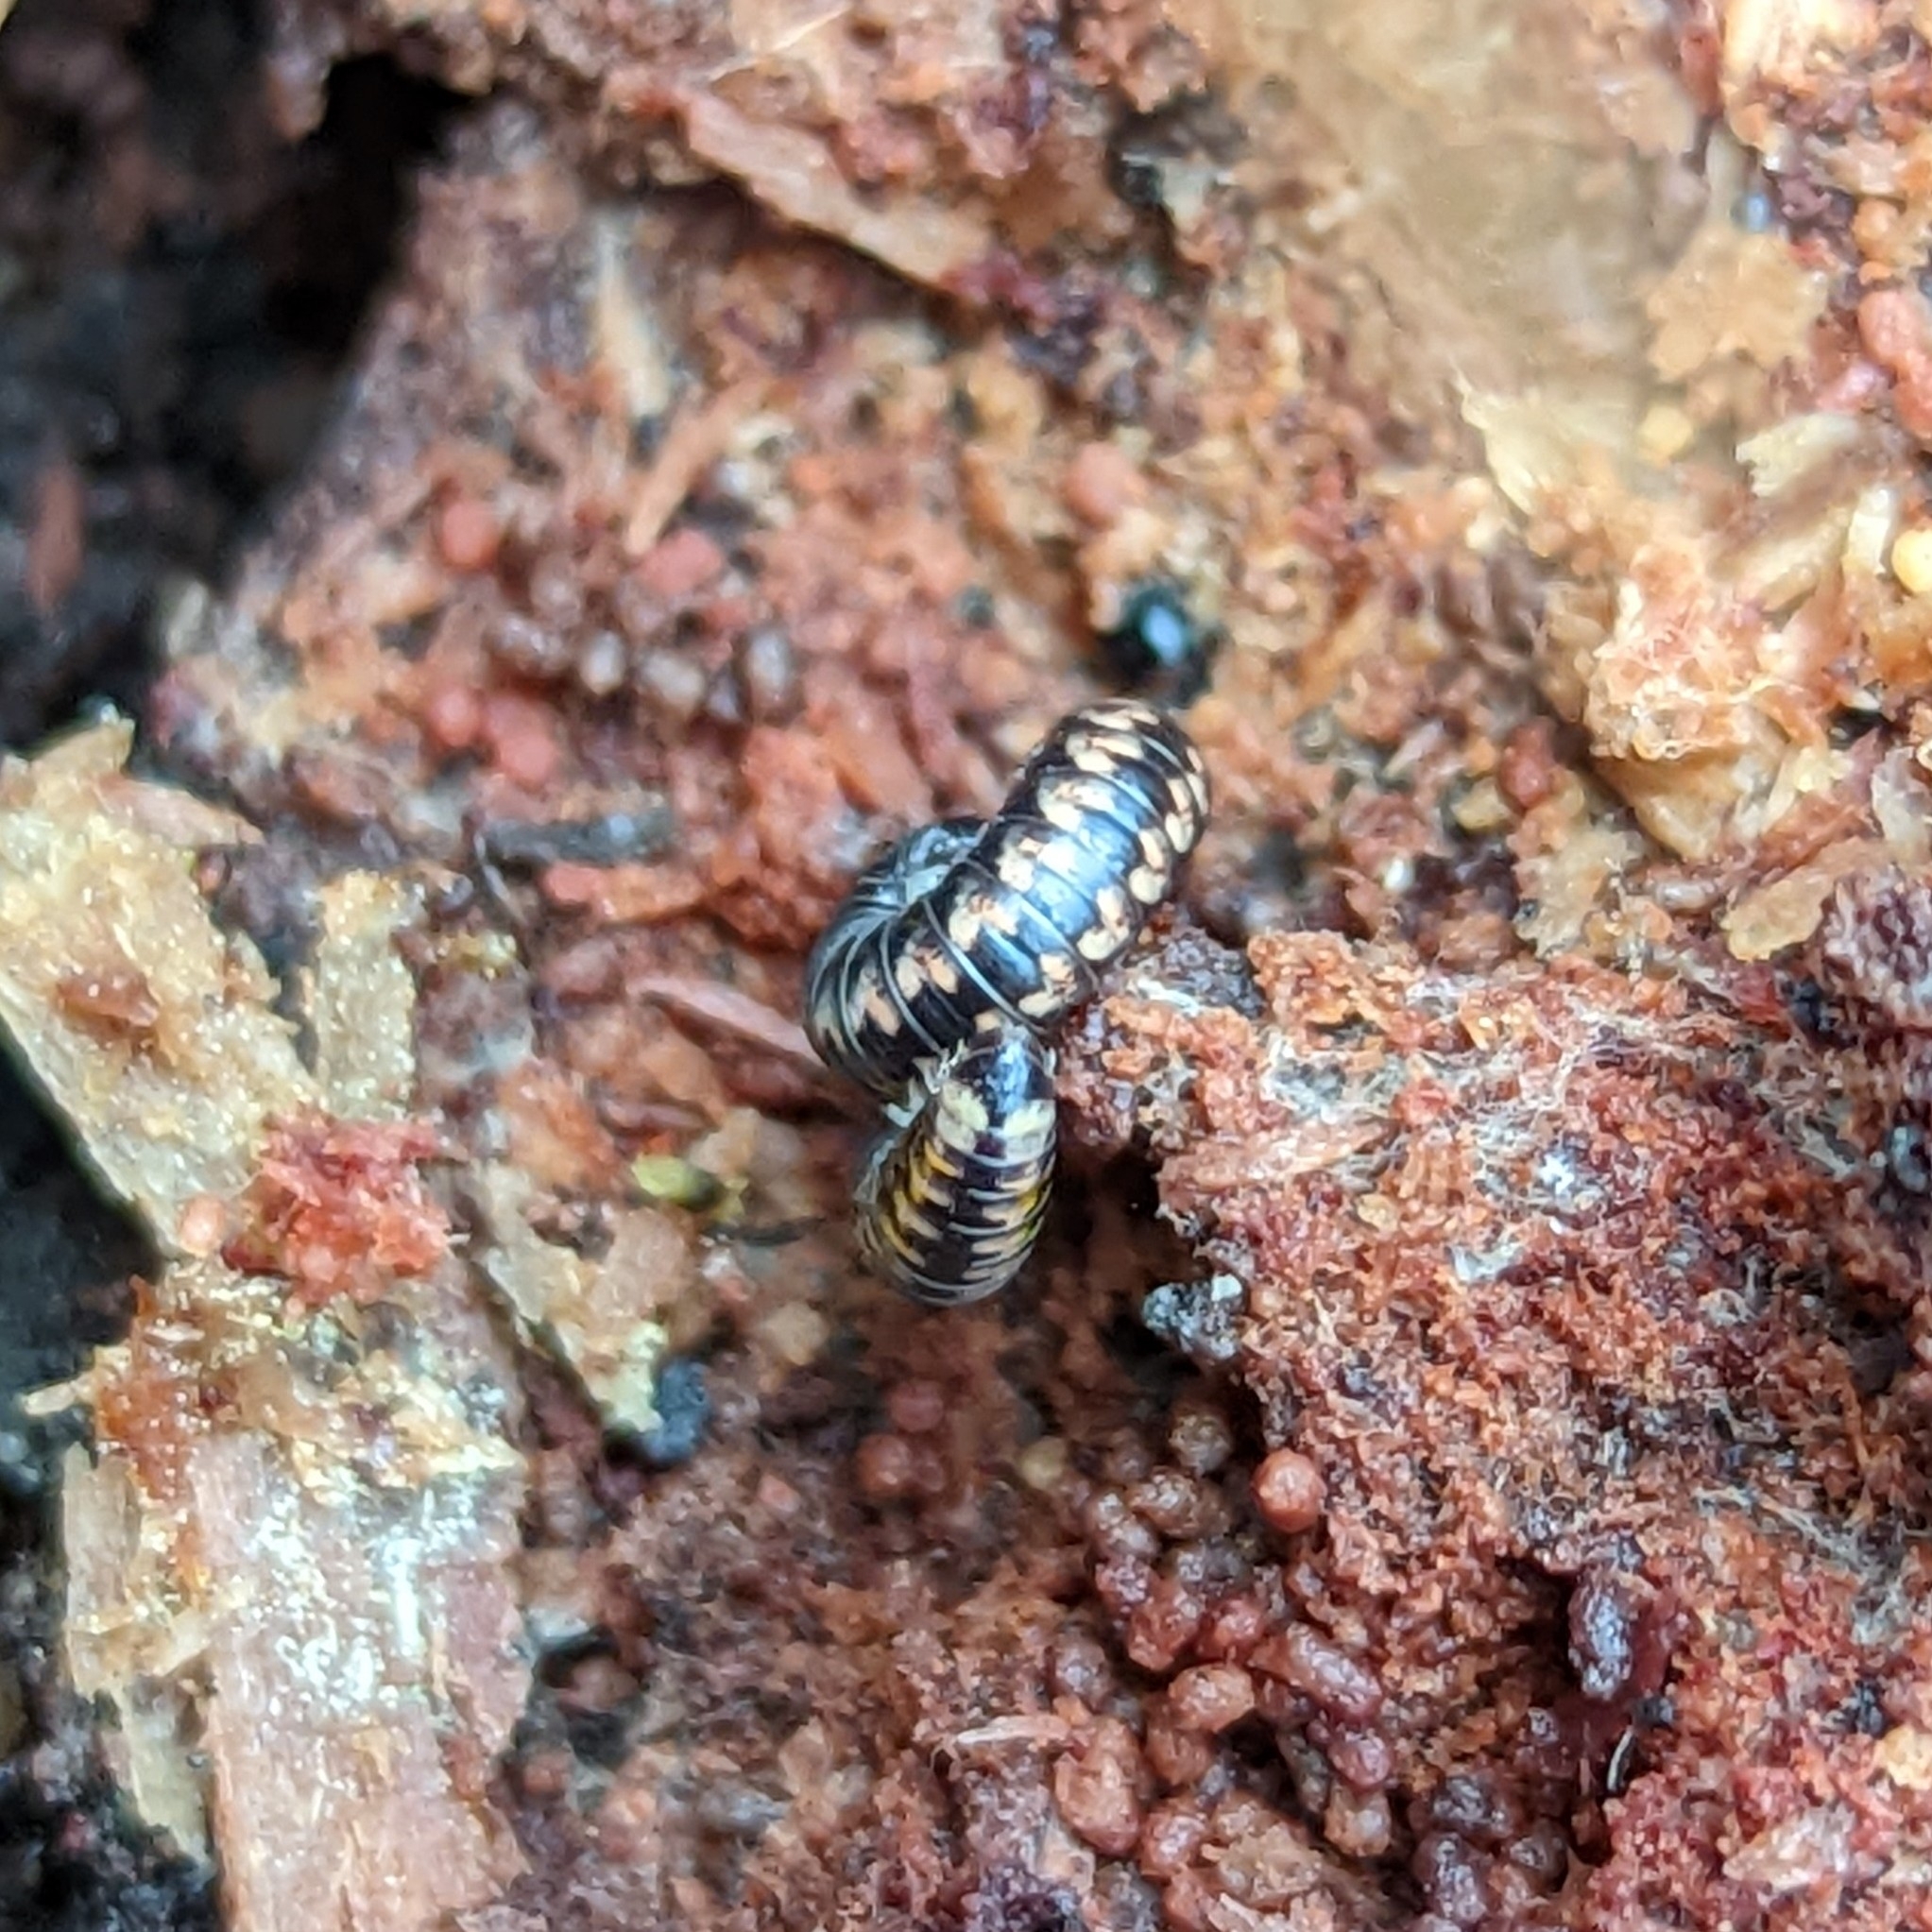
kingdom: Animalia
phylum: Arthropoda
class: Diplopoda
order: Spirobolida
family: Spirobolellidae
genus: Spirobolellus
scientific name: Spirobolellus antipodarum
